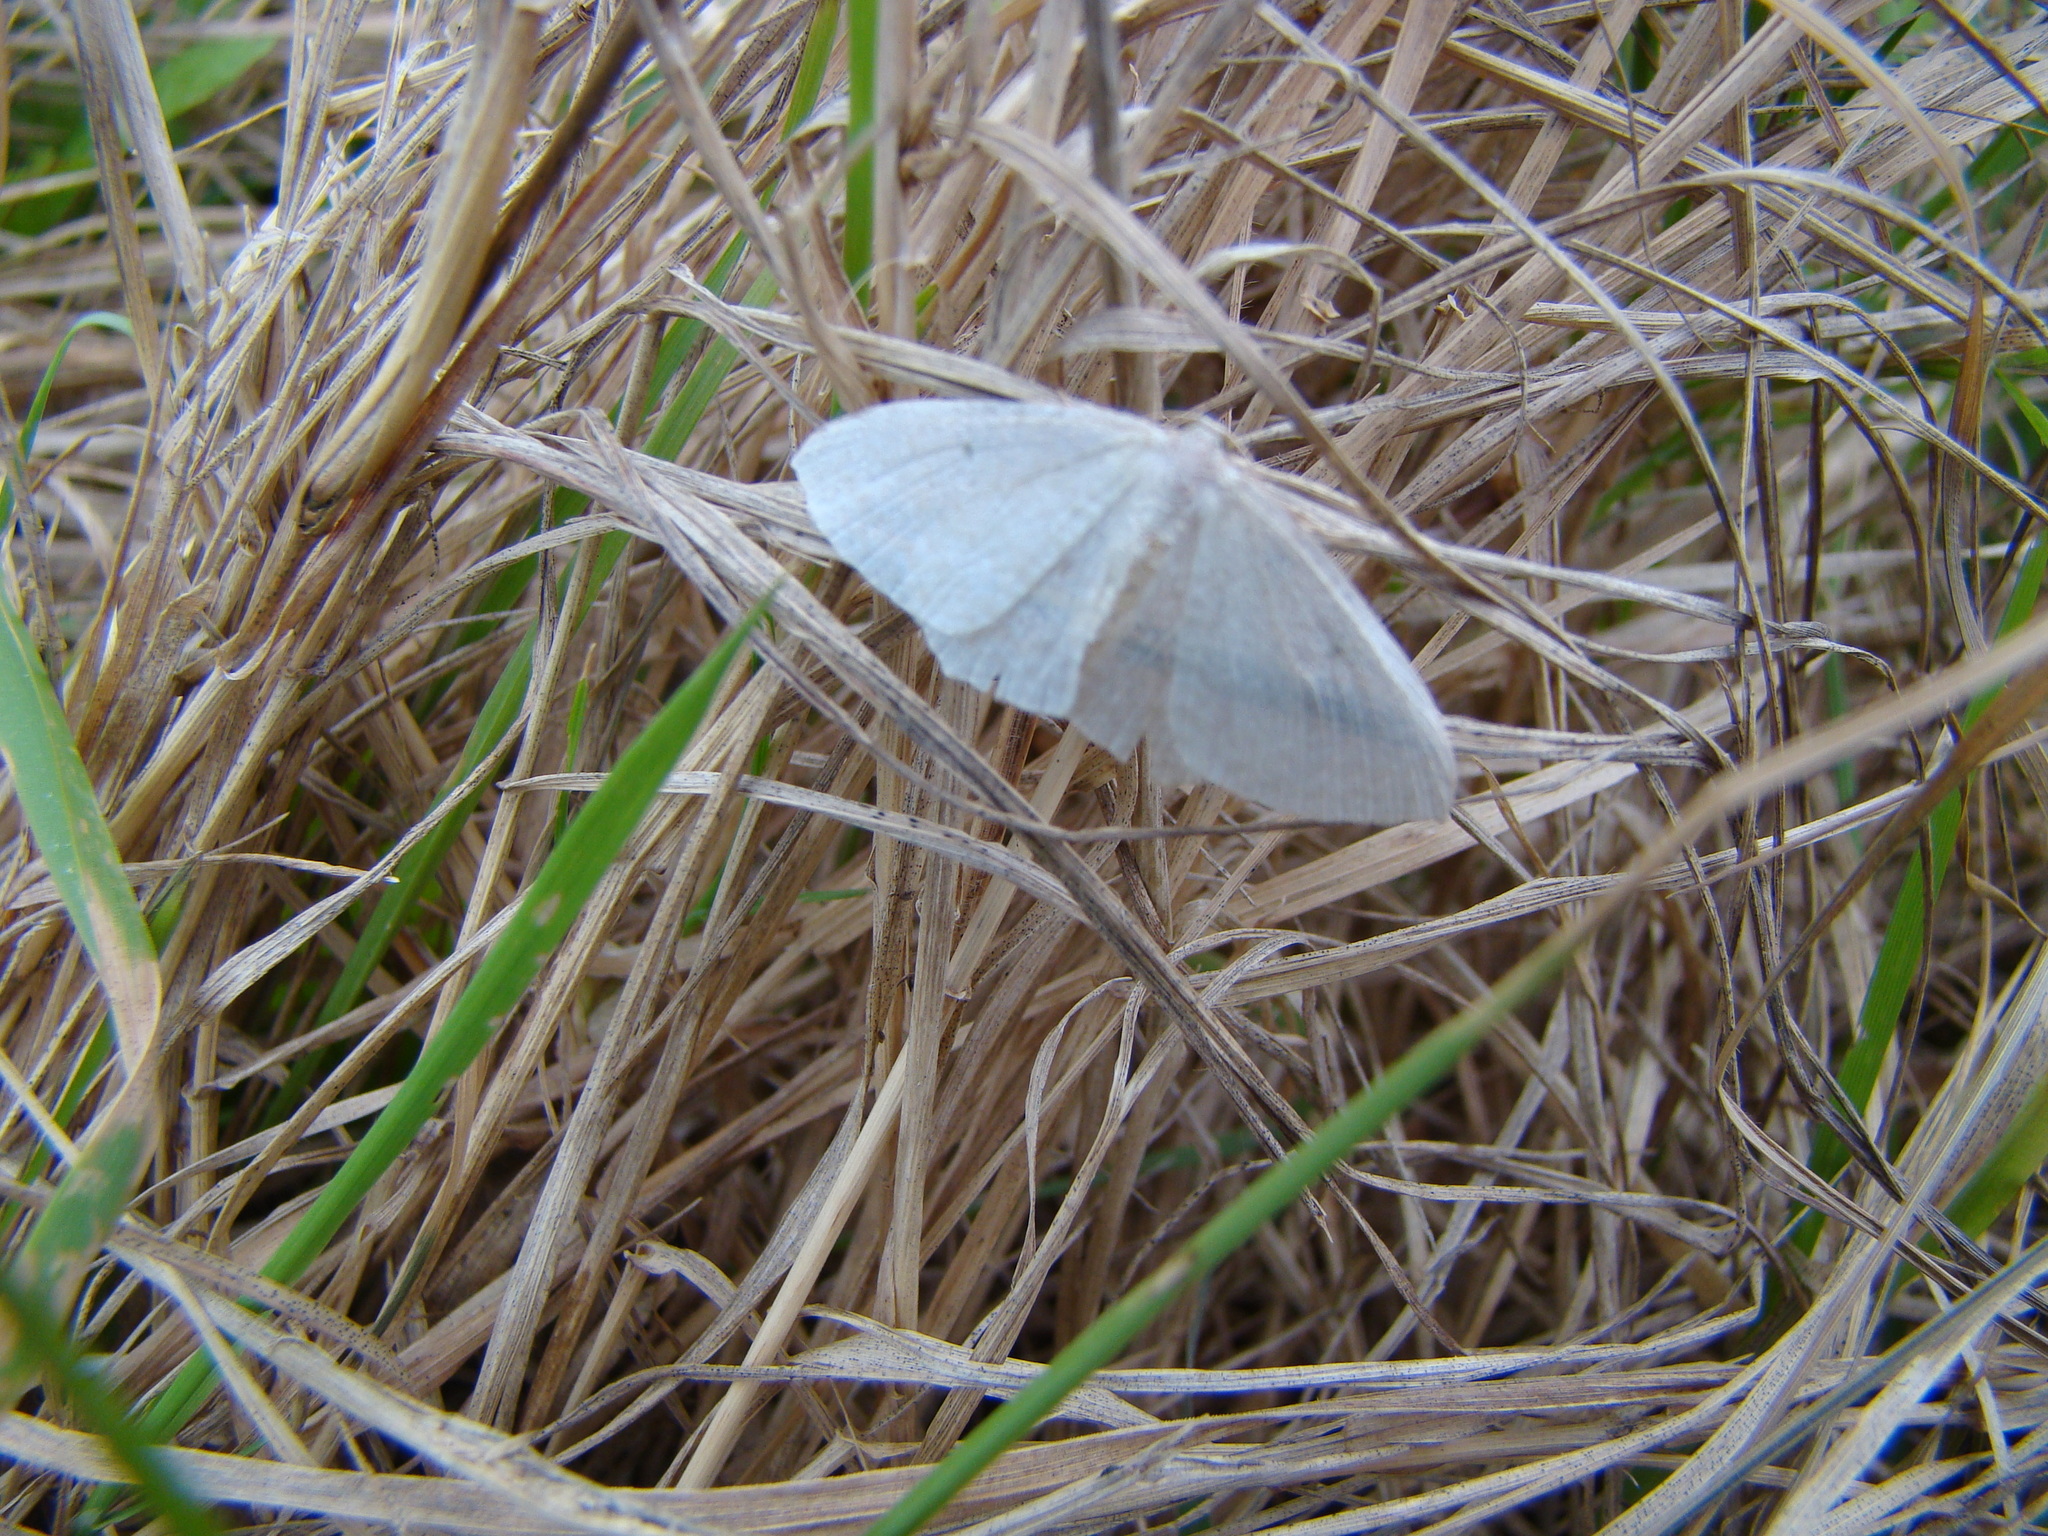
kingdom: Animalia
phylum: Arthropoda
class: Insecta
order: Lepidoptera
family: Geometridae
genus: Poecilasthena
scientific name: Poecilasthena pulchraria
